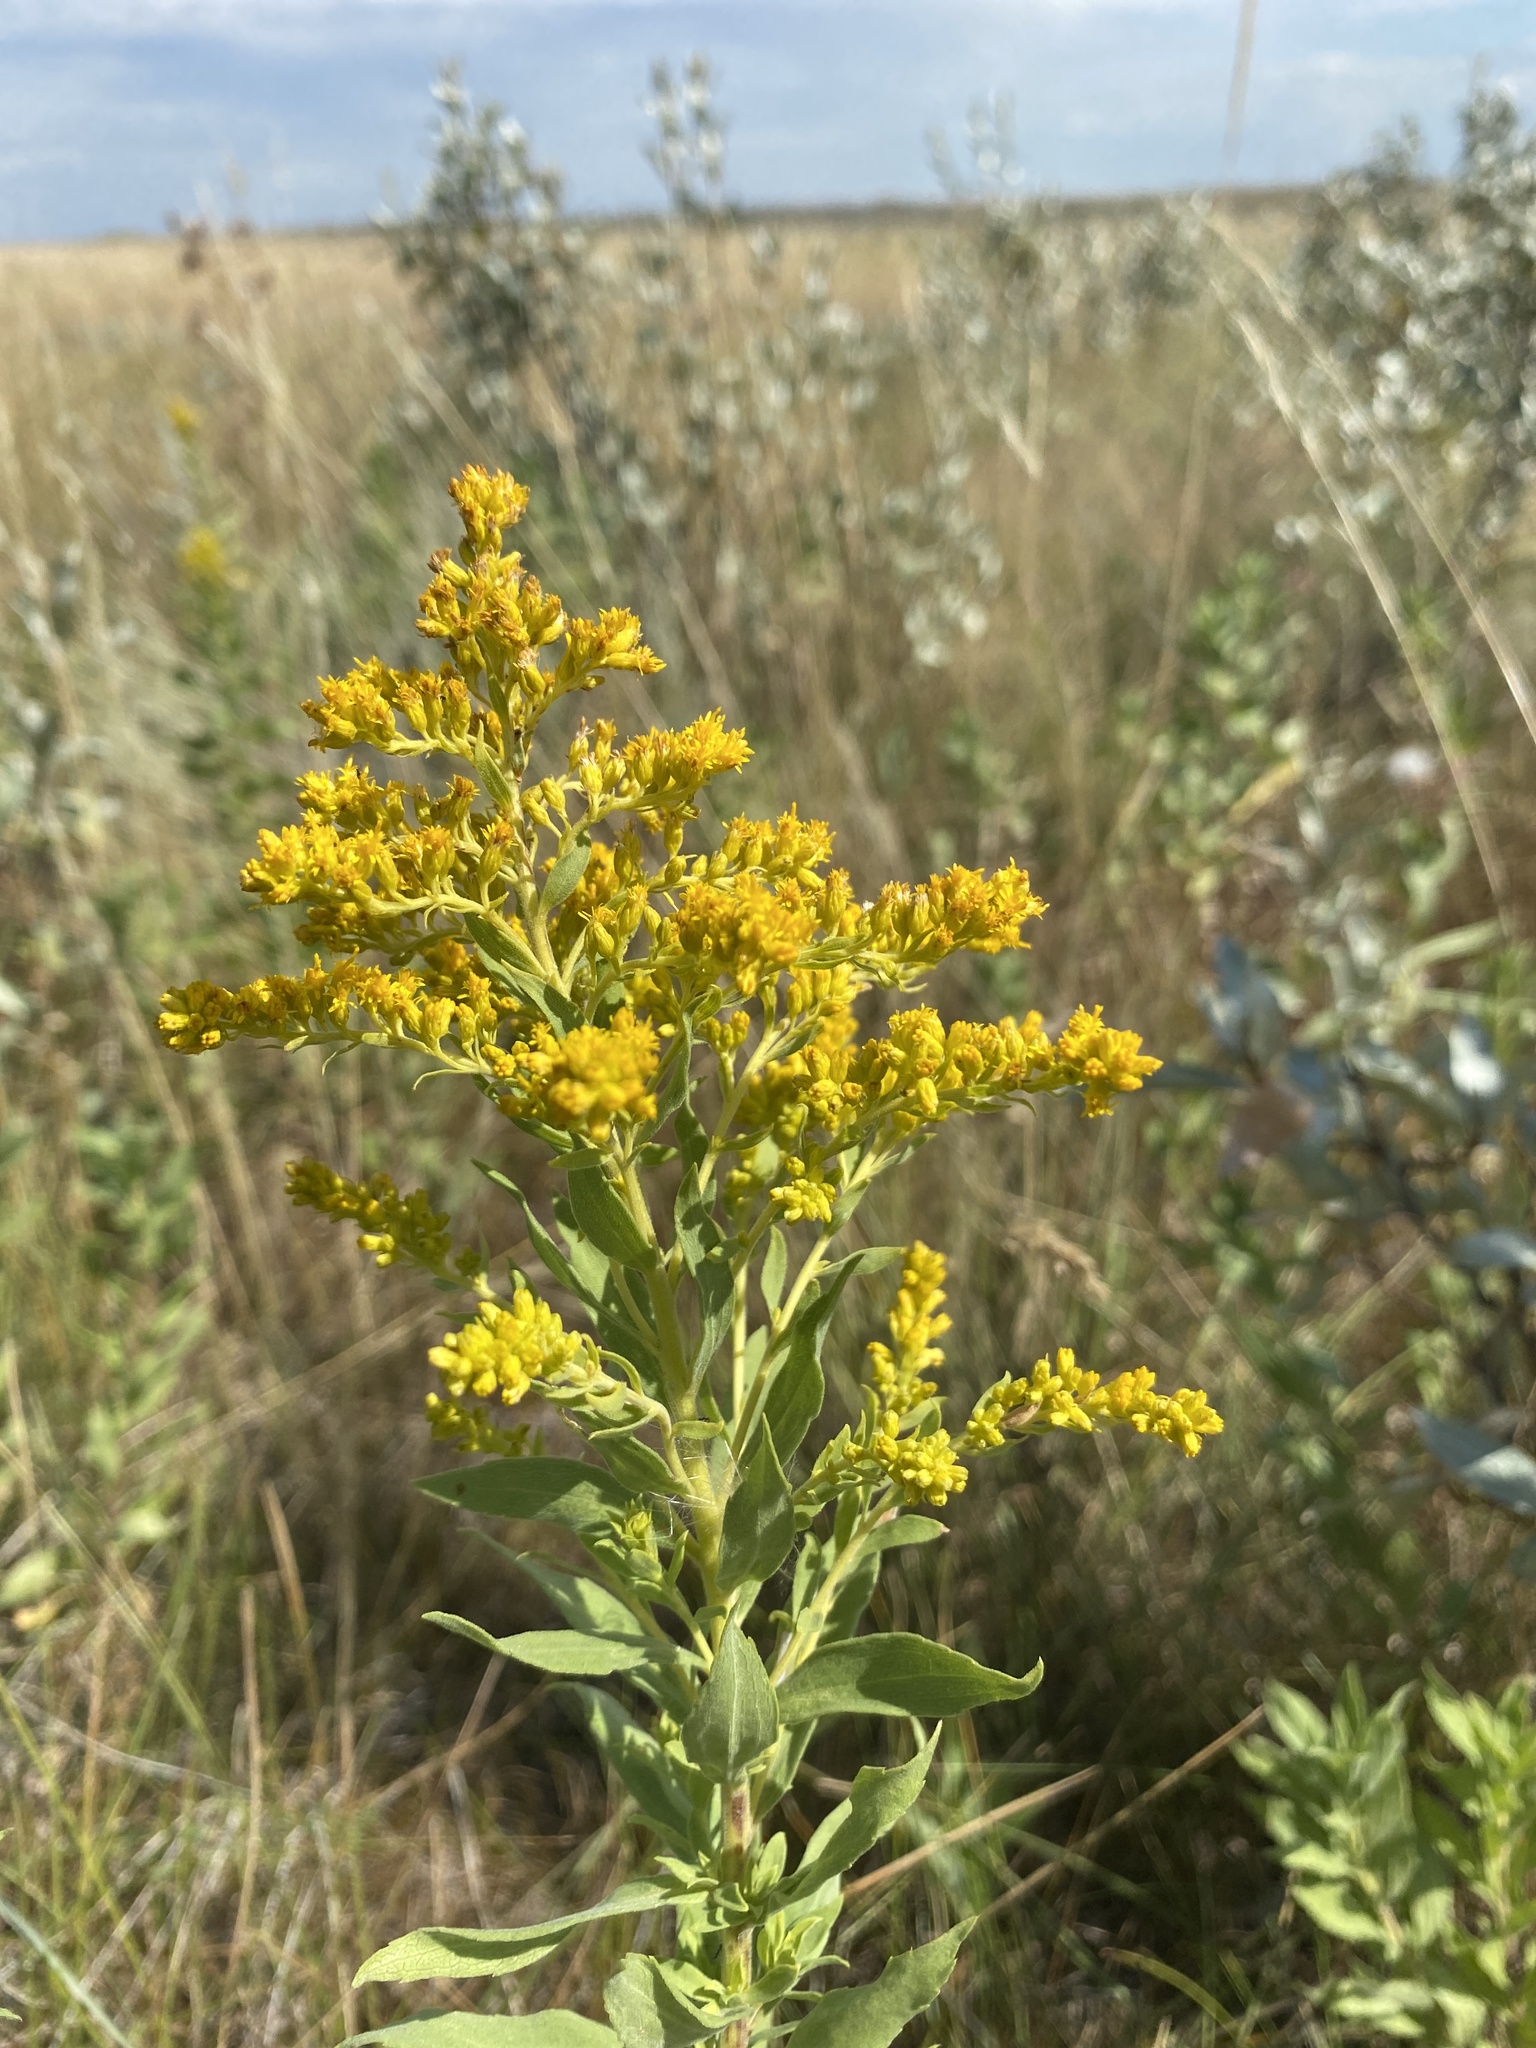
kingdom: Plantae
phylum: Tracheophyta
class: Magnoliopsida
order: Asterales
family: Asteraceae
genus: Solidago
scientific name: Solidago canadensis
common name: Canada goldenrod
